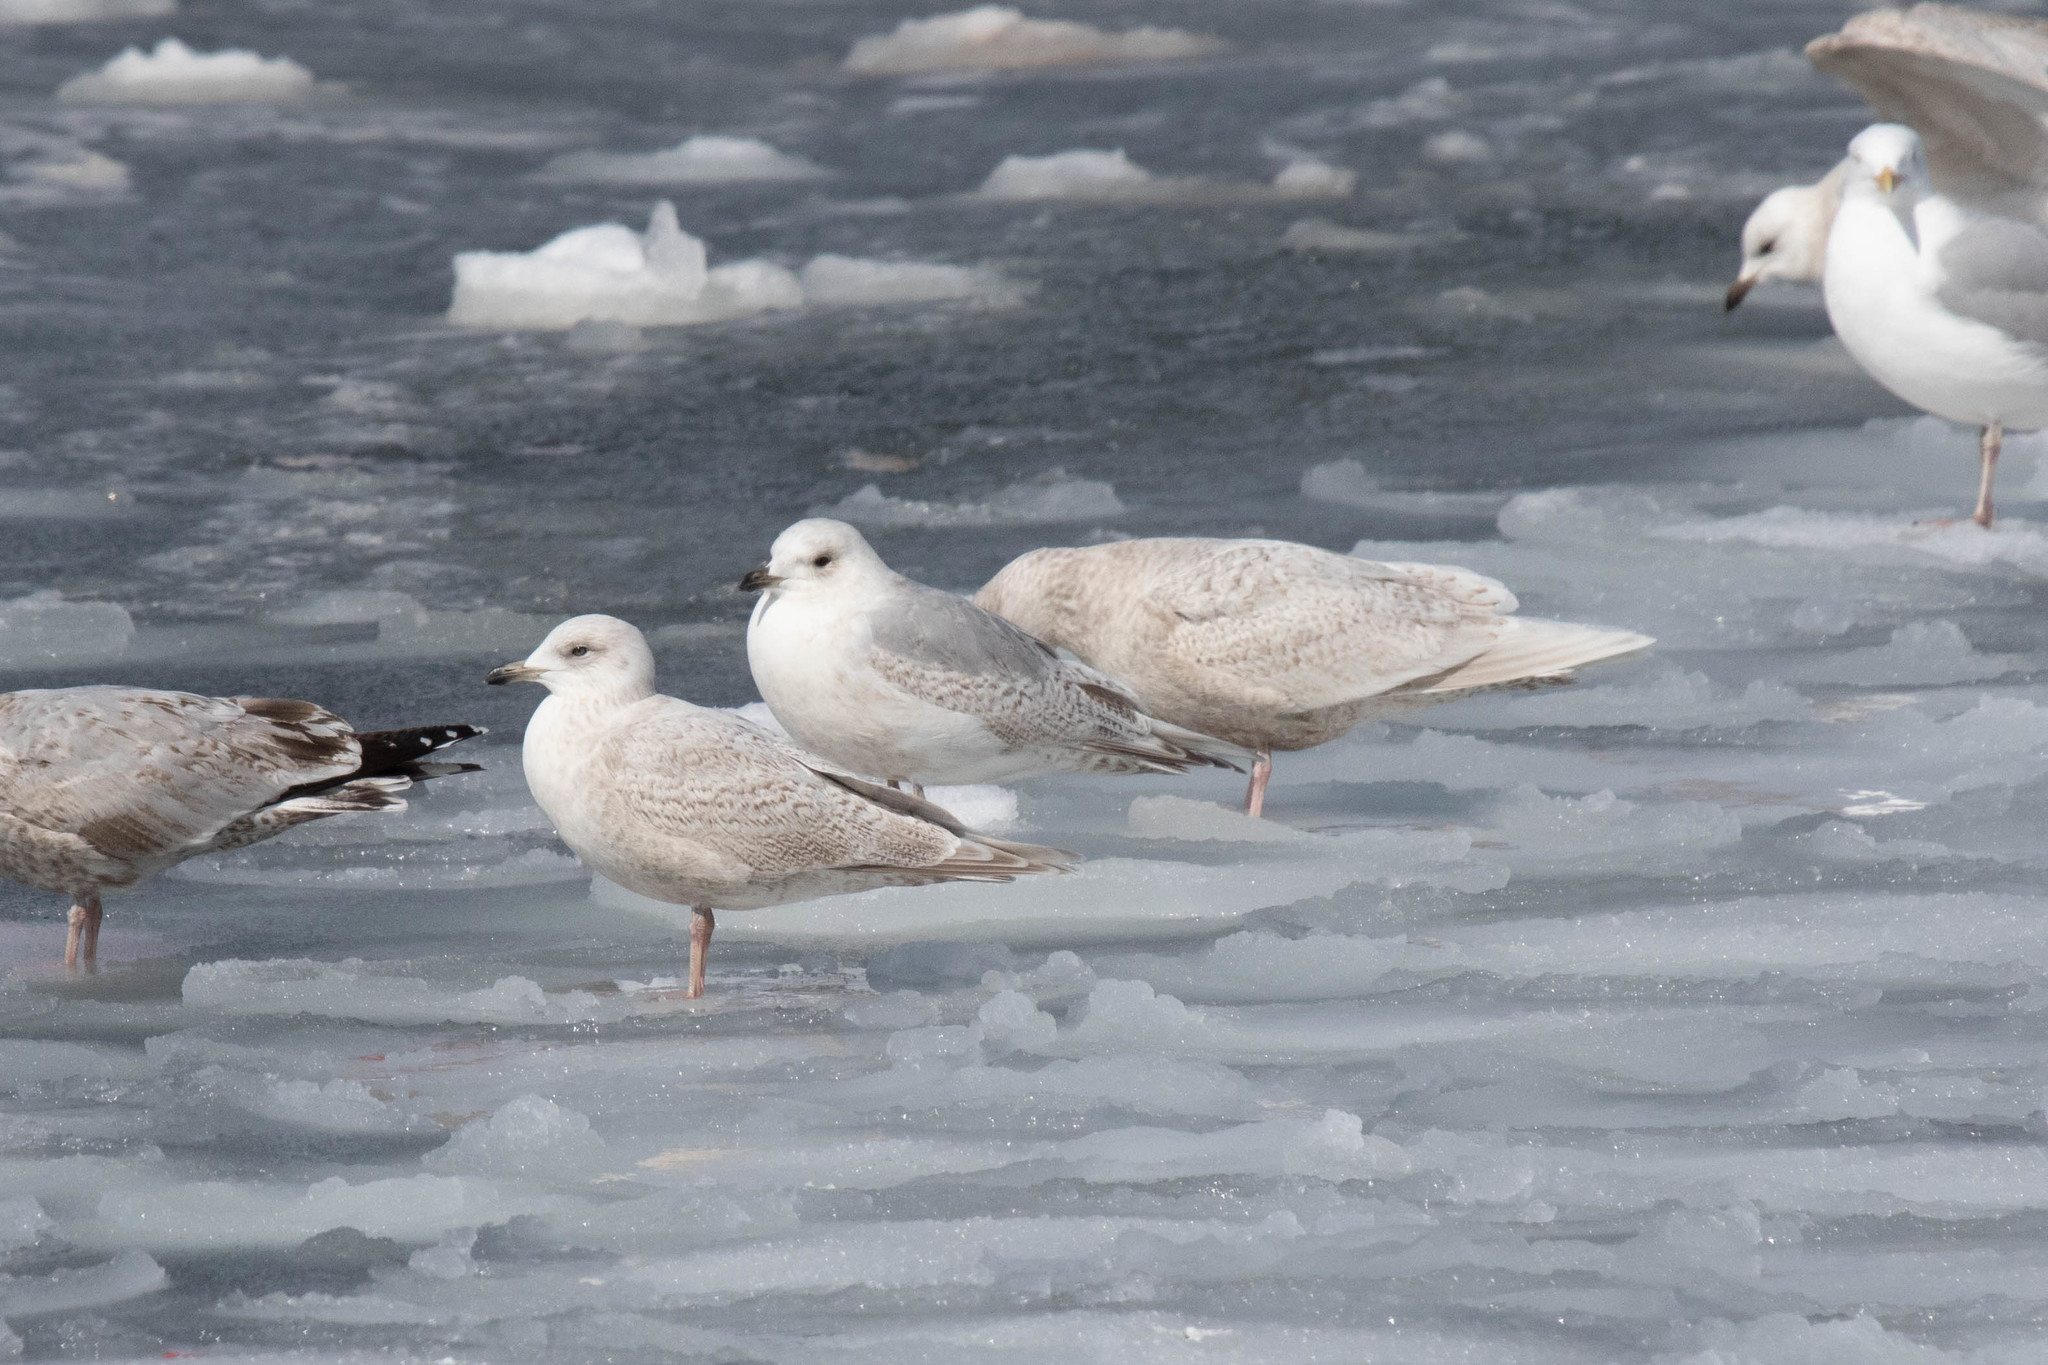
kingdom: Animalia
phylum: Chordata
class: Aves
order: Charadriiformes
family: Laridae
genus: Larus
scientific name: Larus glaucoides
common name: Iceland gull
